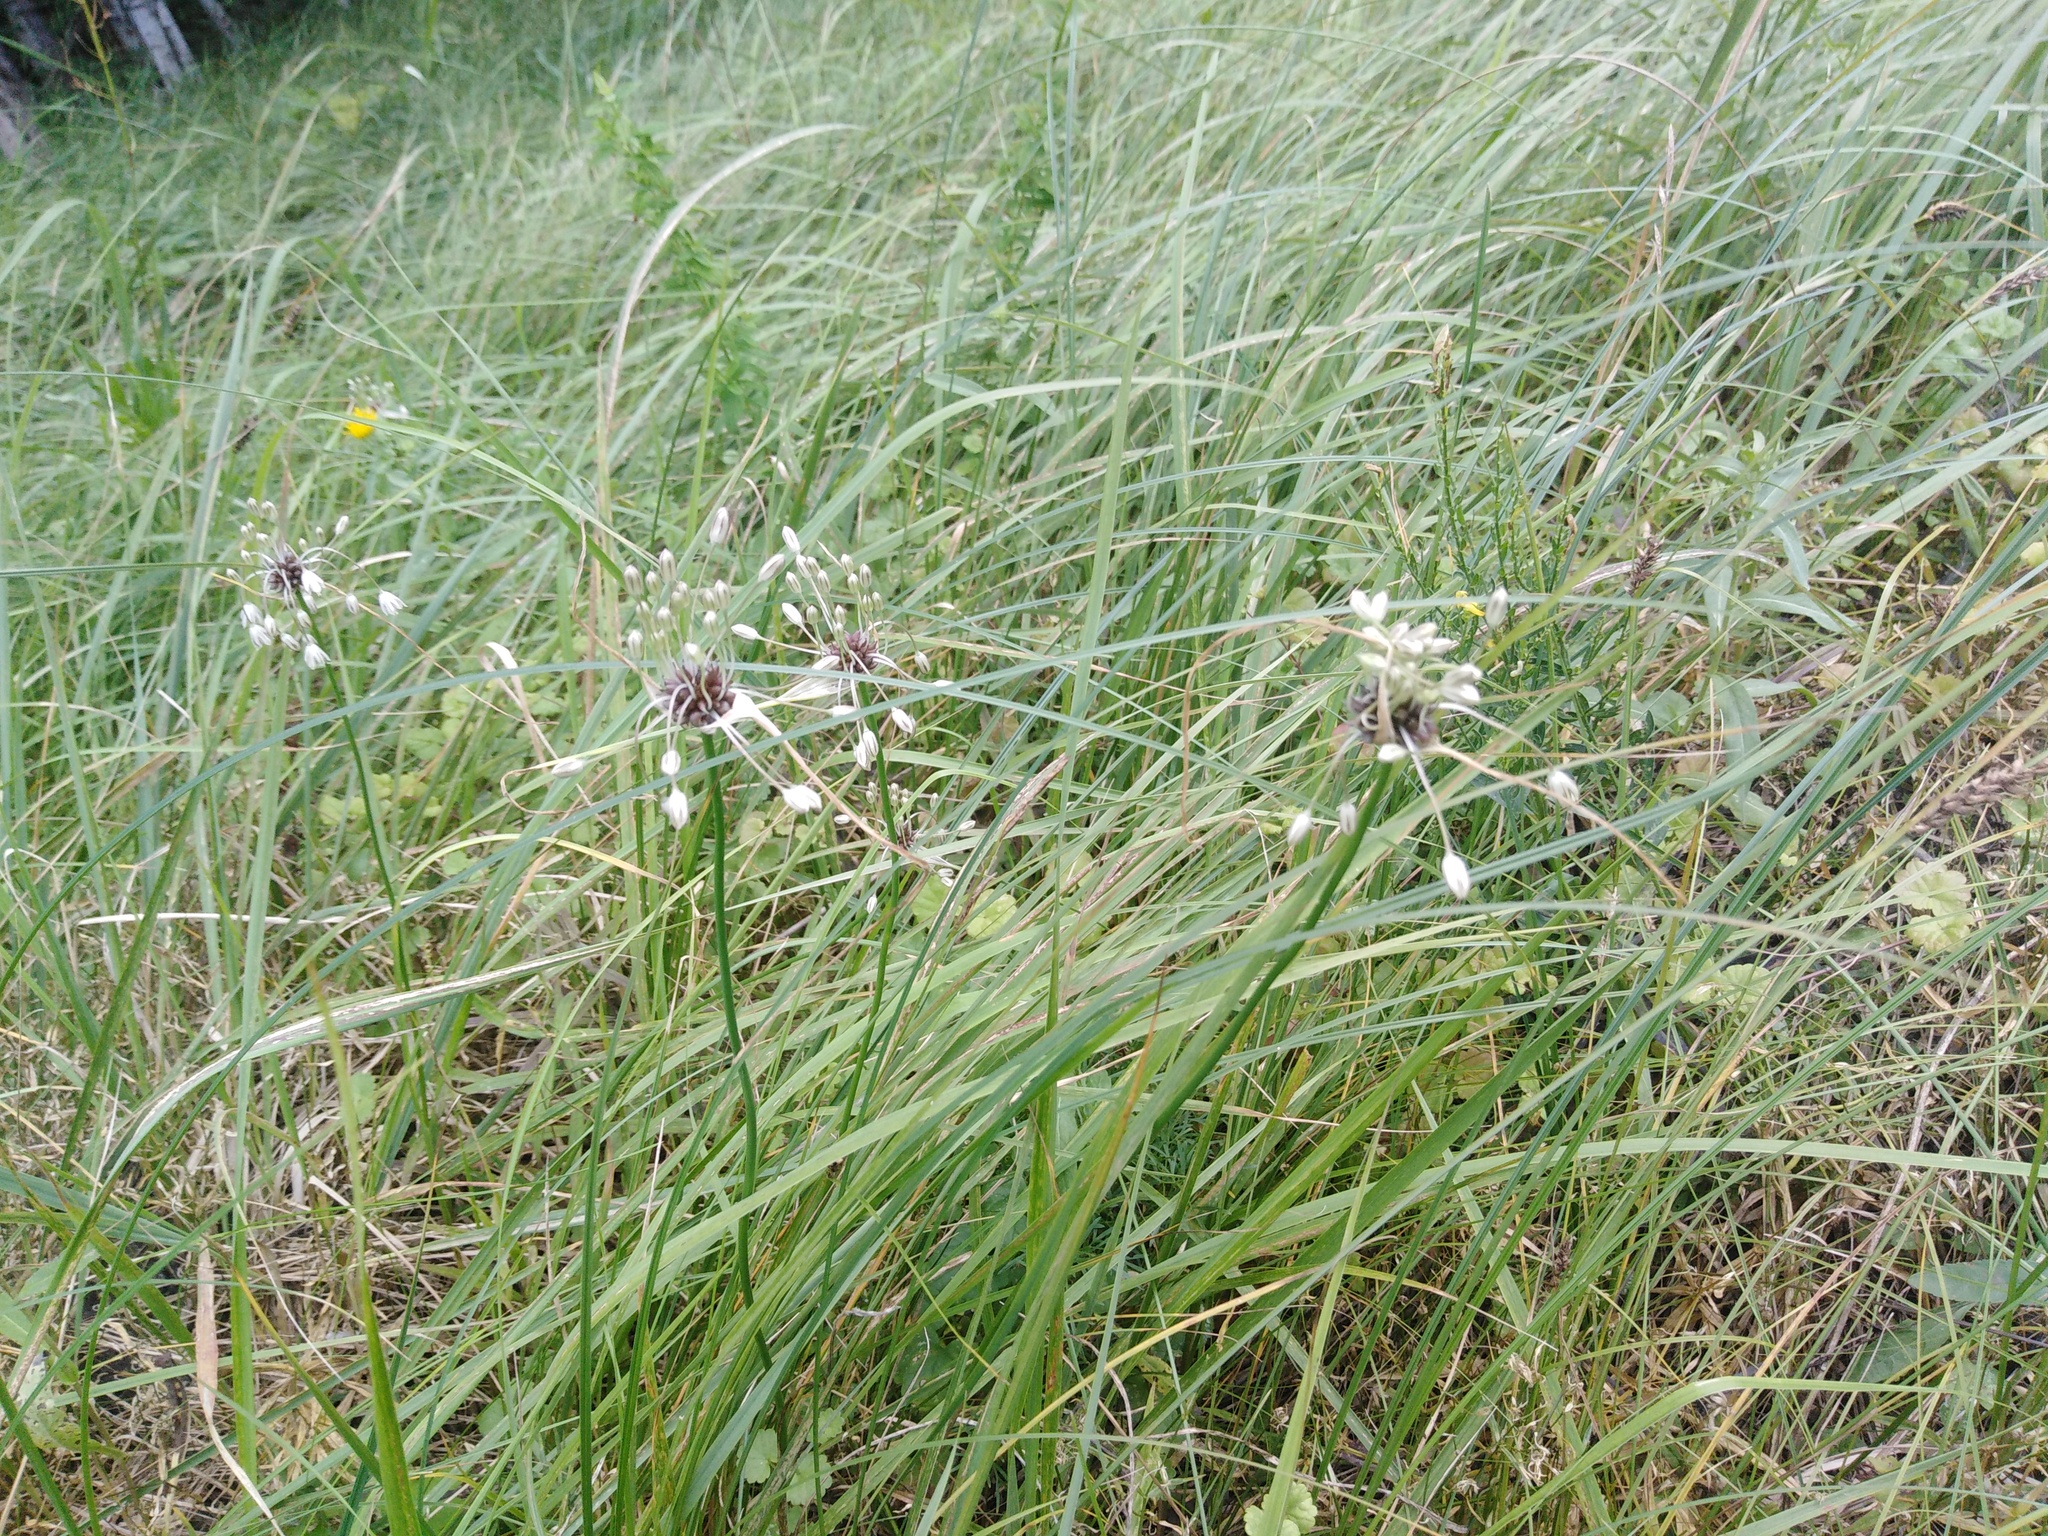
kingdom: Plantae
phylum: Tracheophyta
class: Liliopsida
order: Asparagales
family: Amaryllidaceae
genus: Allium
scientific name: Allium oleraceum
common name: Field garlic
